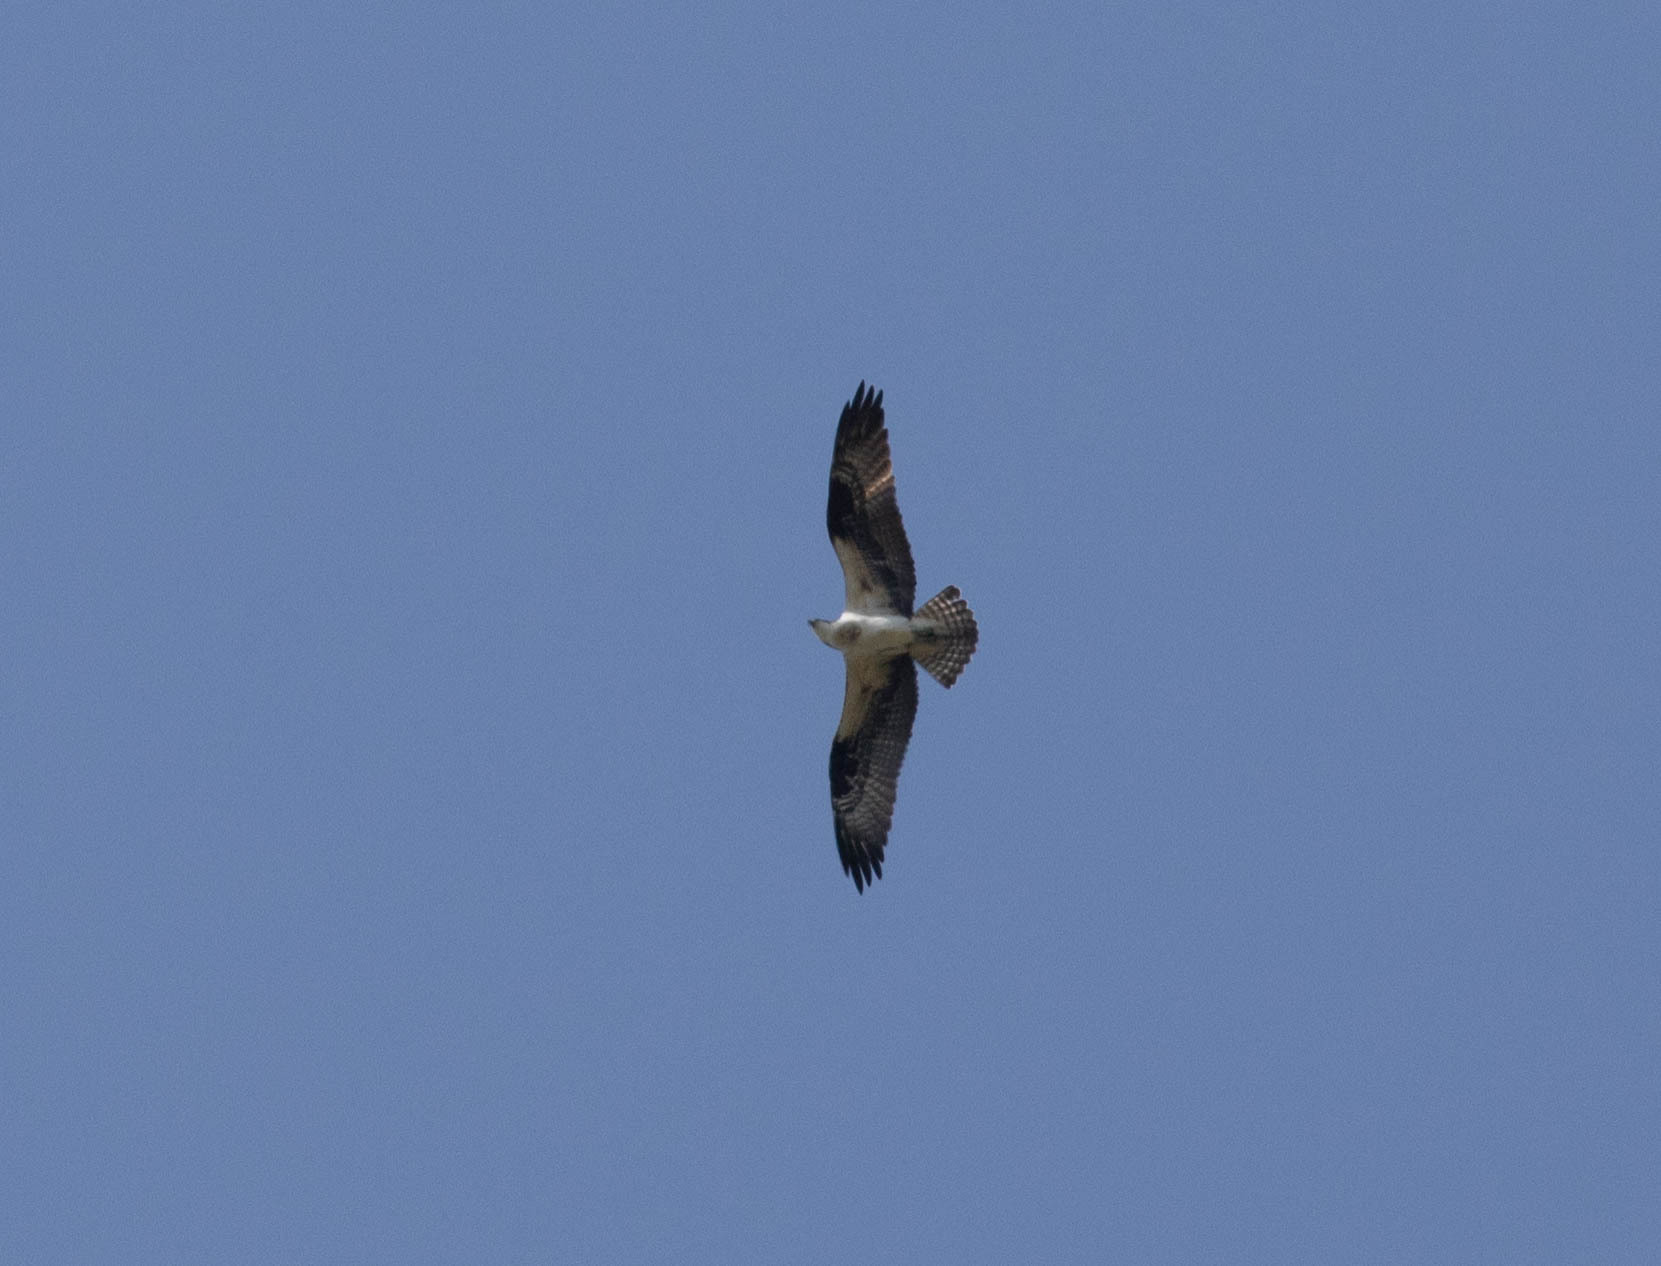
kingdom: Animalia
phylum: Chordata
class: Aves
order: Accipitriformes
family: Pandionidae
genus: Pandion
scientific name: Pandion haliaetus
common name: Osprey
